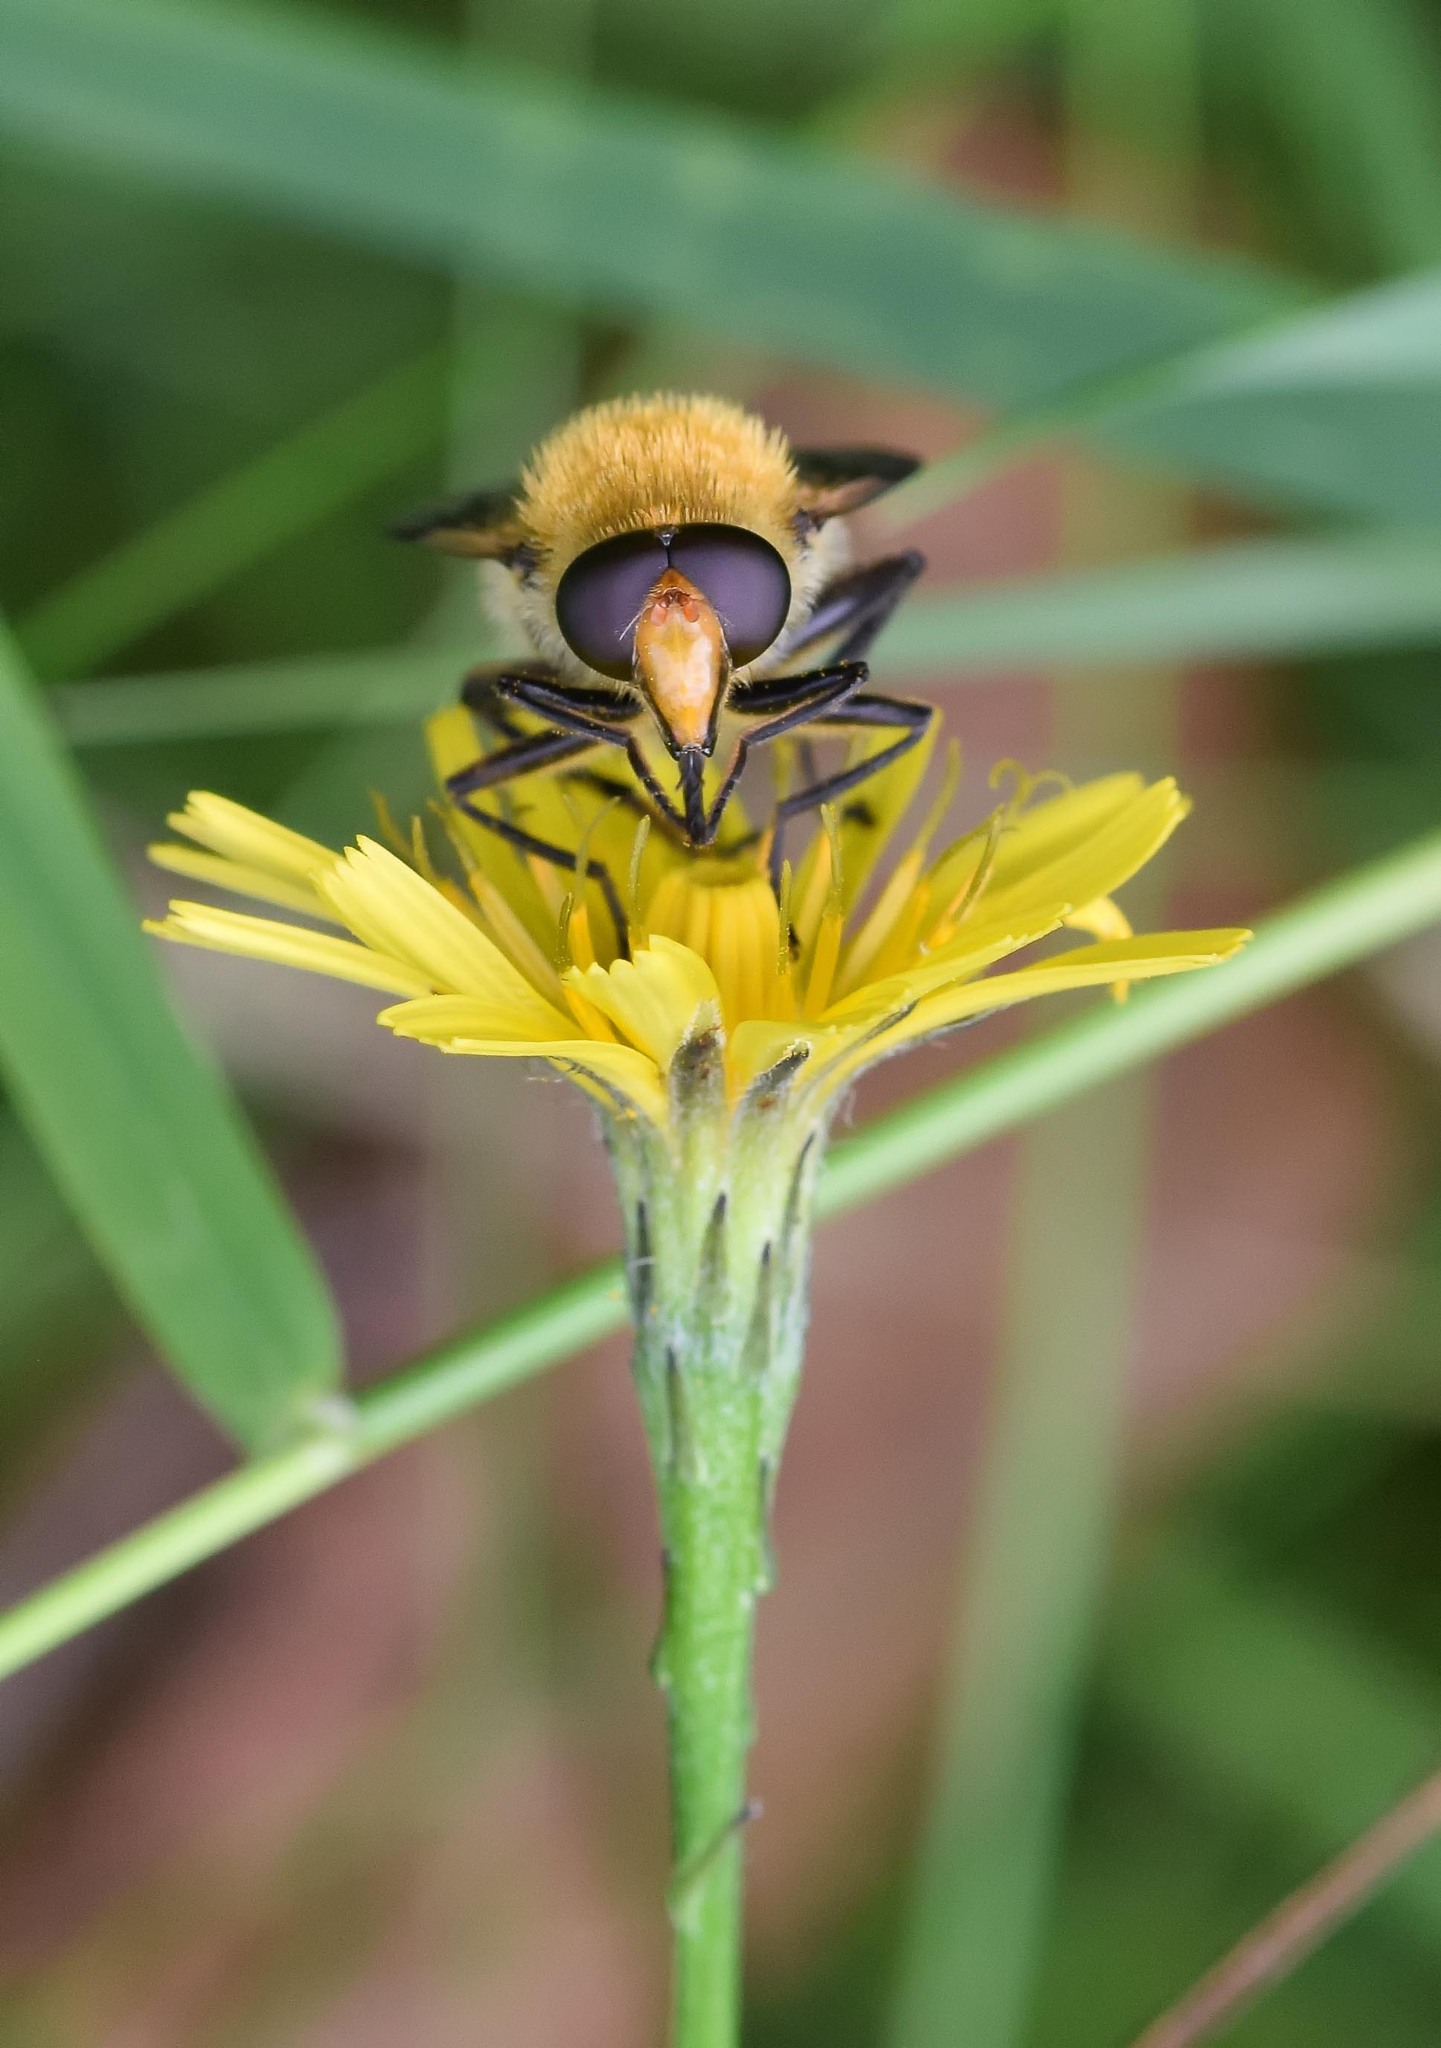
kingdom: Animalia
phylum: Arthropoda
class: Insecta
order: Diptera
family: Syrphidae
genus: Sericomyia
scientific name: Sericomyia superbiens
